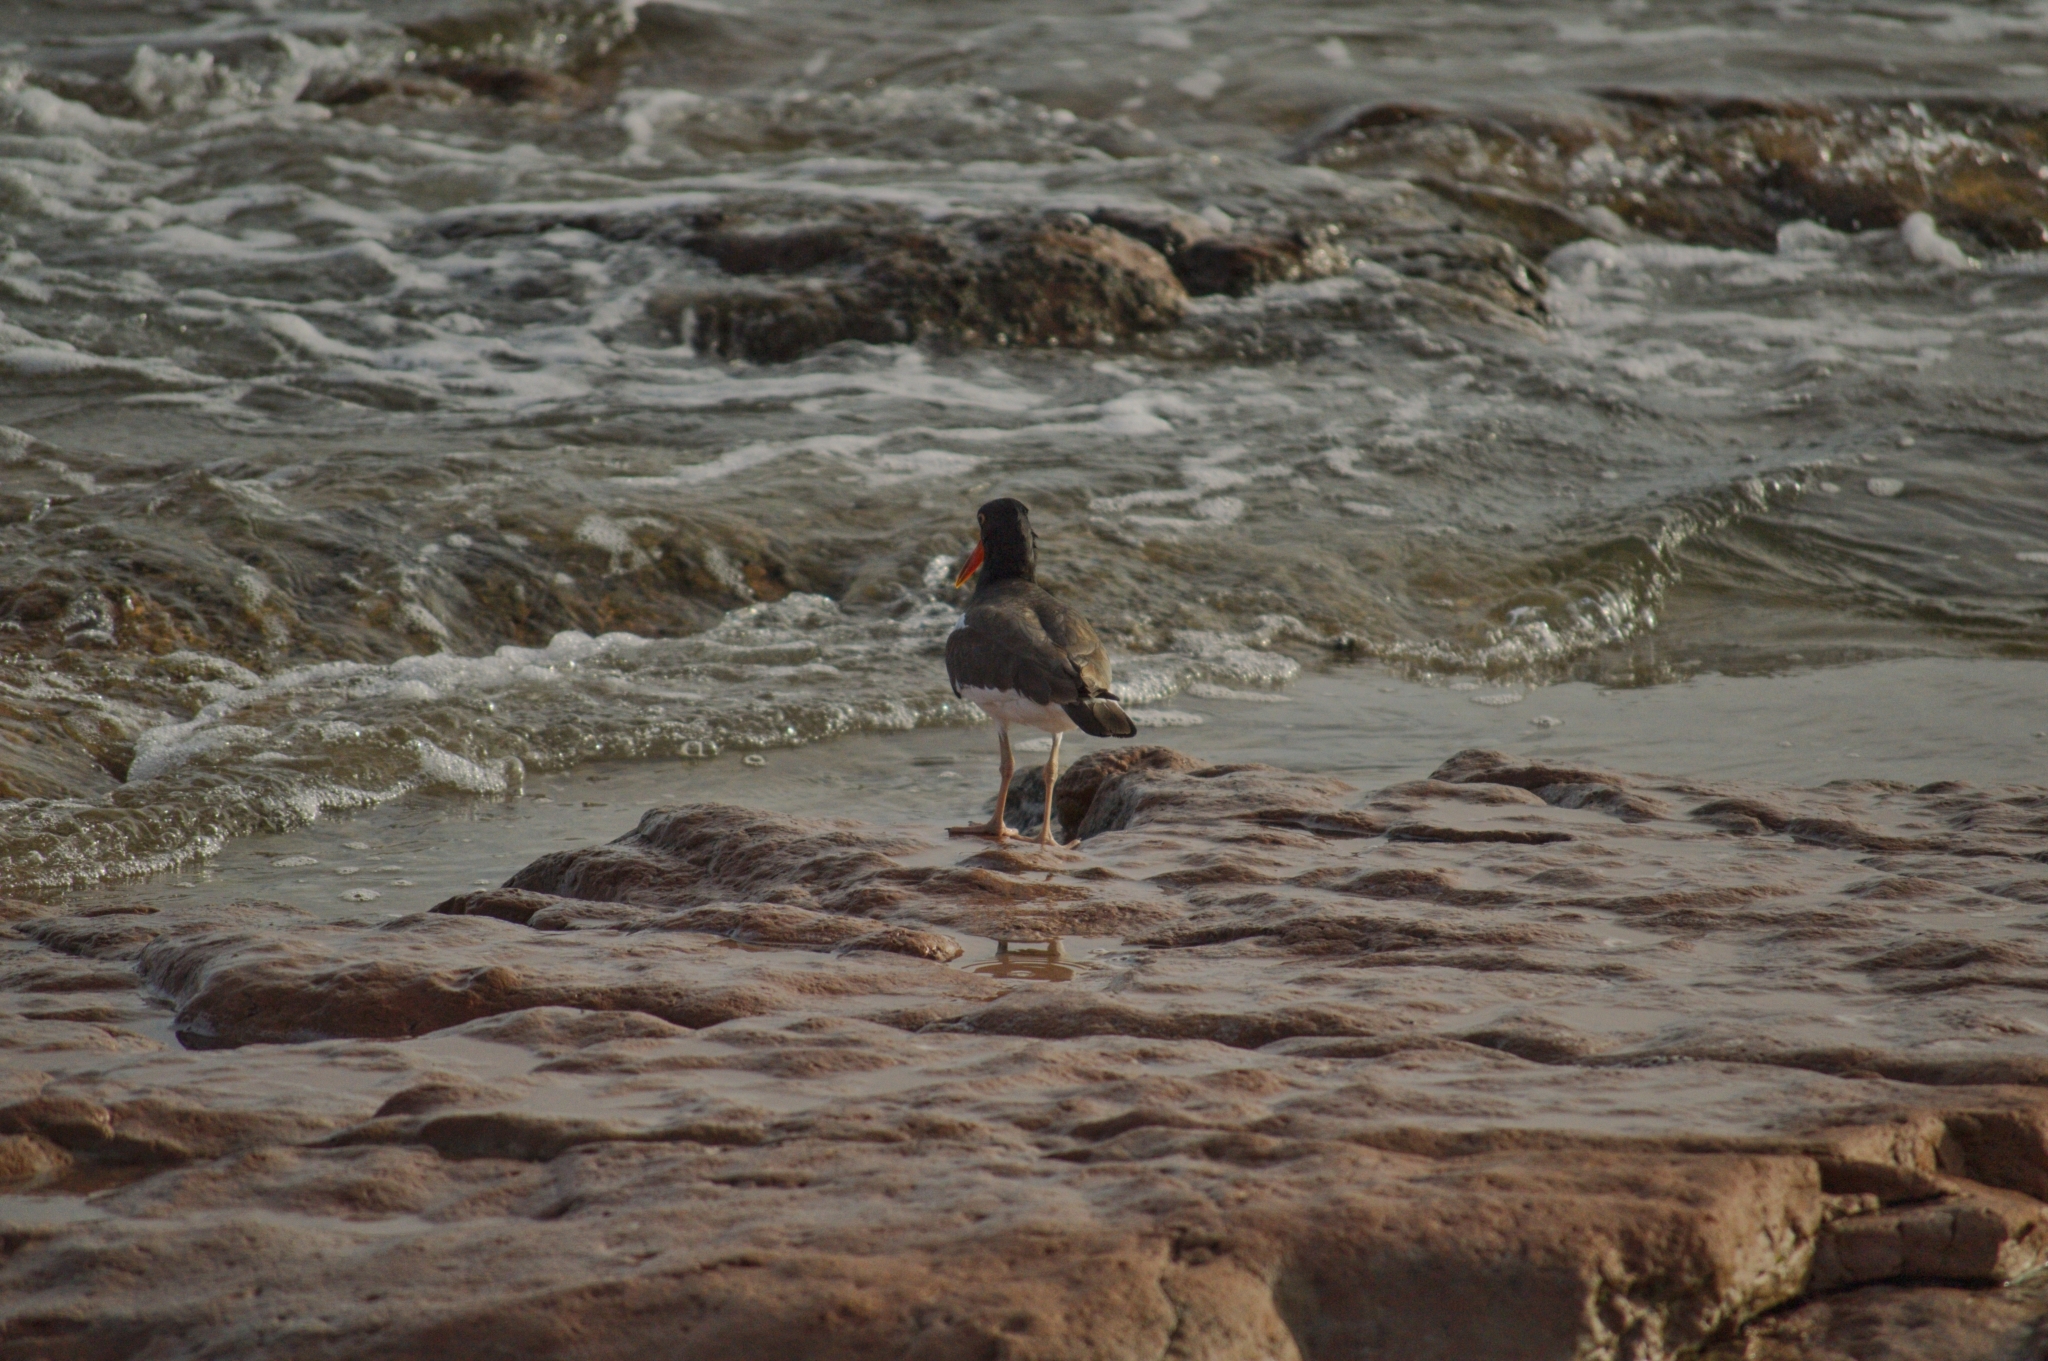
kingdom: Animalia
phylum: Chordata
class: Aves
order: Charadriiformes
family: Haematopodidae
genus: Haematopus
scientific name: Haematopus palliatus
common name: American oystercatcher
